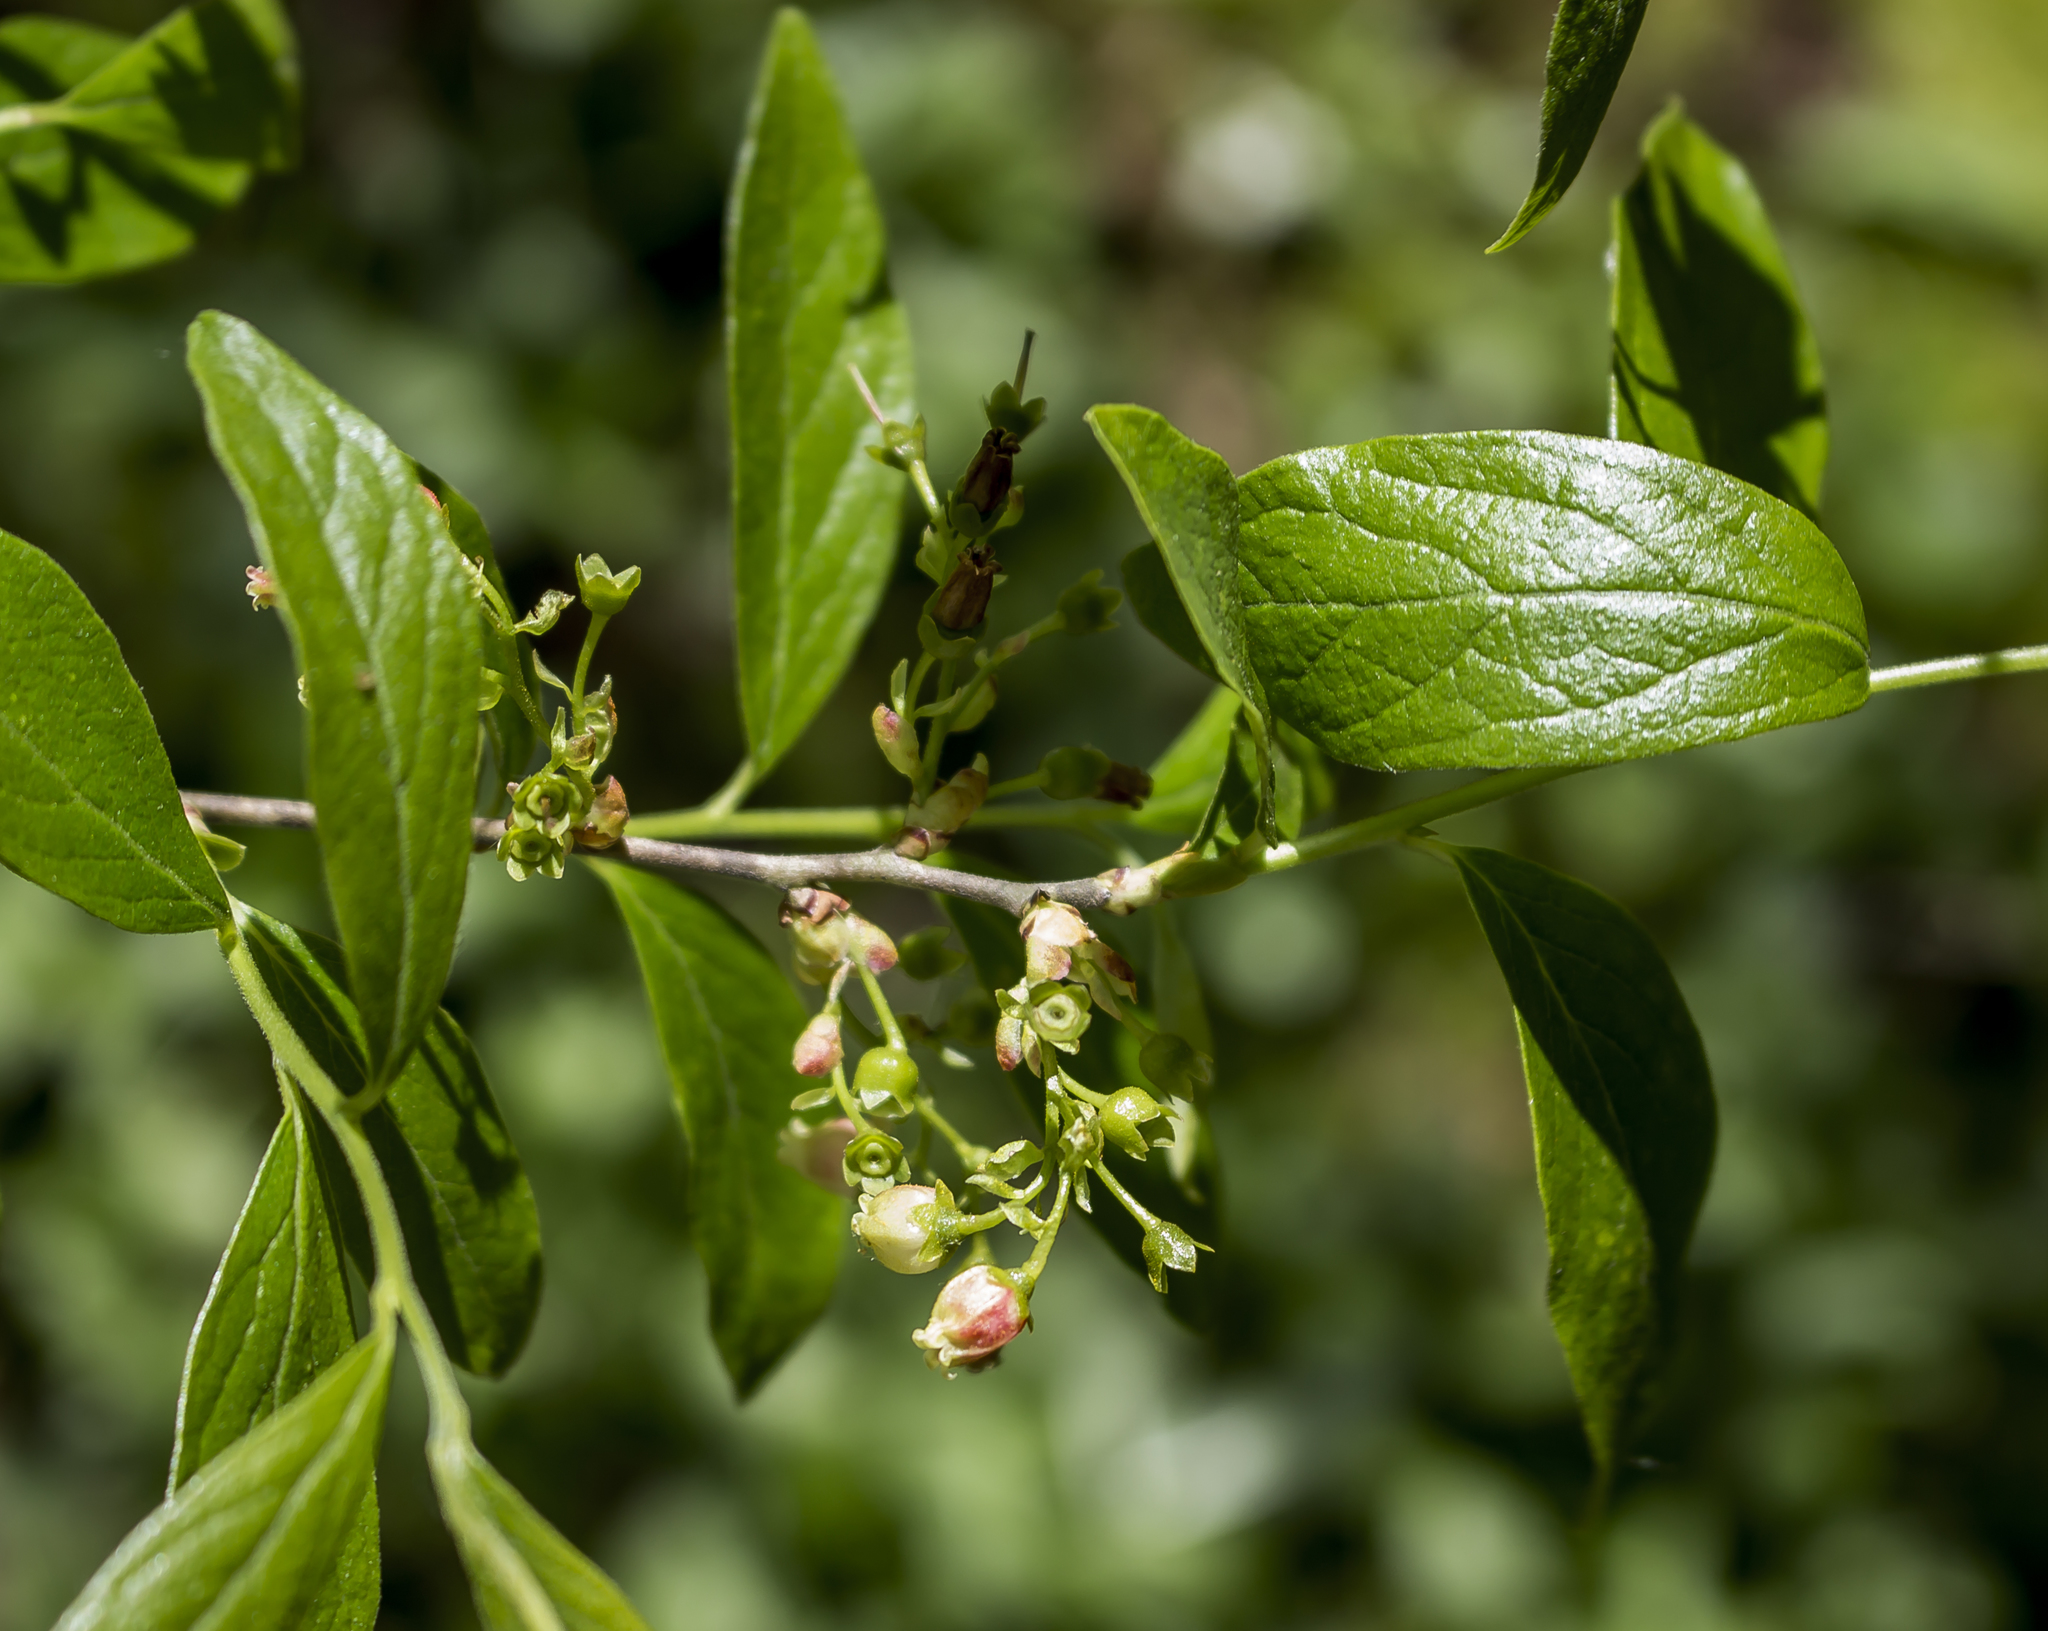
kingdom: Plantae
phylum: Tracheophyta
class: Magnoliopsida
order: Ericales
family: Ericaceae
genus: Gaylussacia
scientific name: Gaylussacia baccata
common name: Black huckleberry
